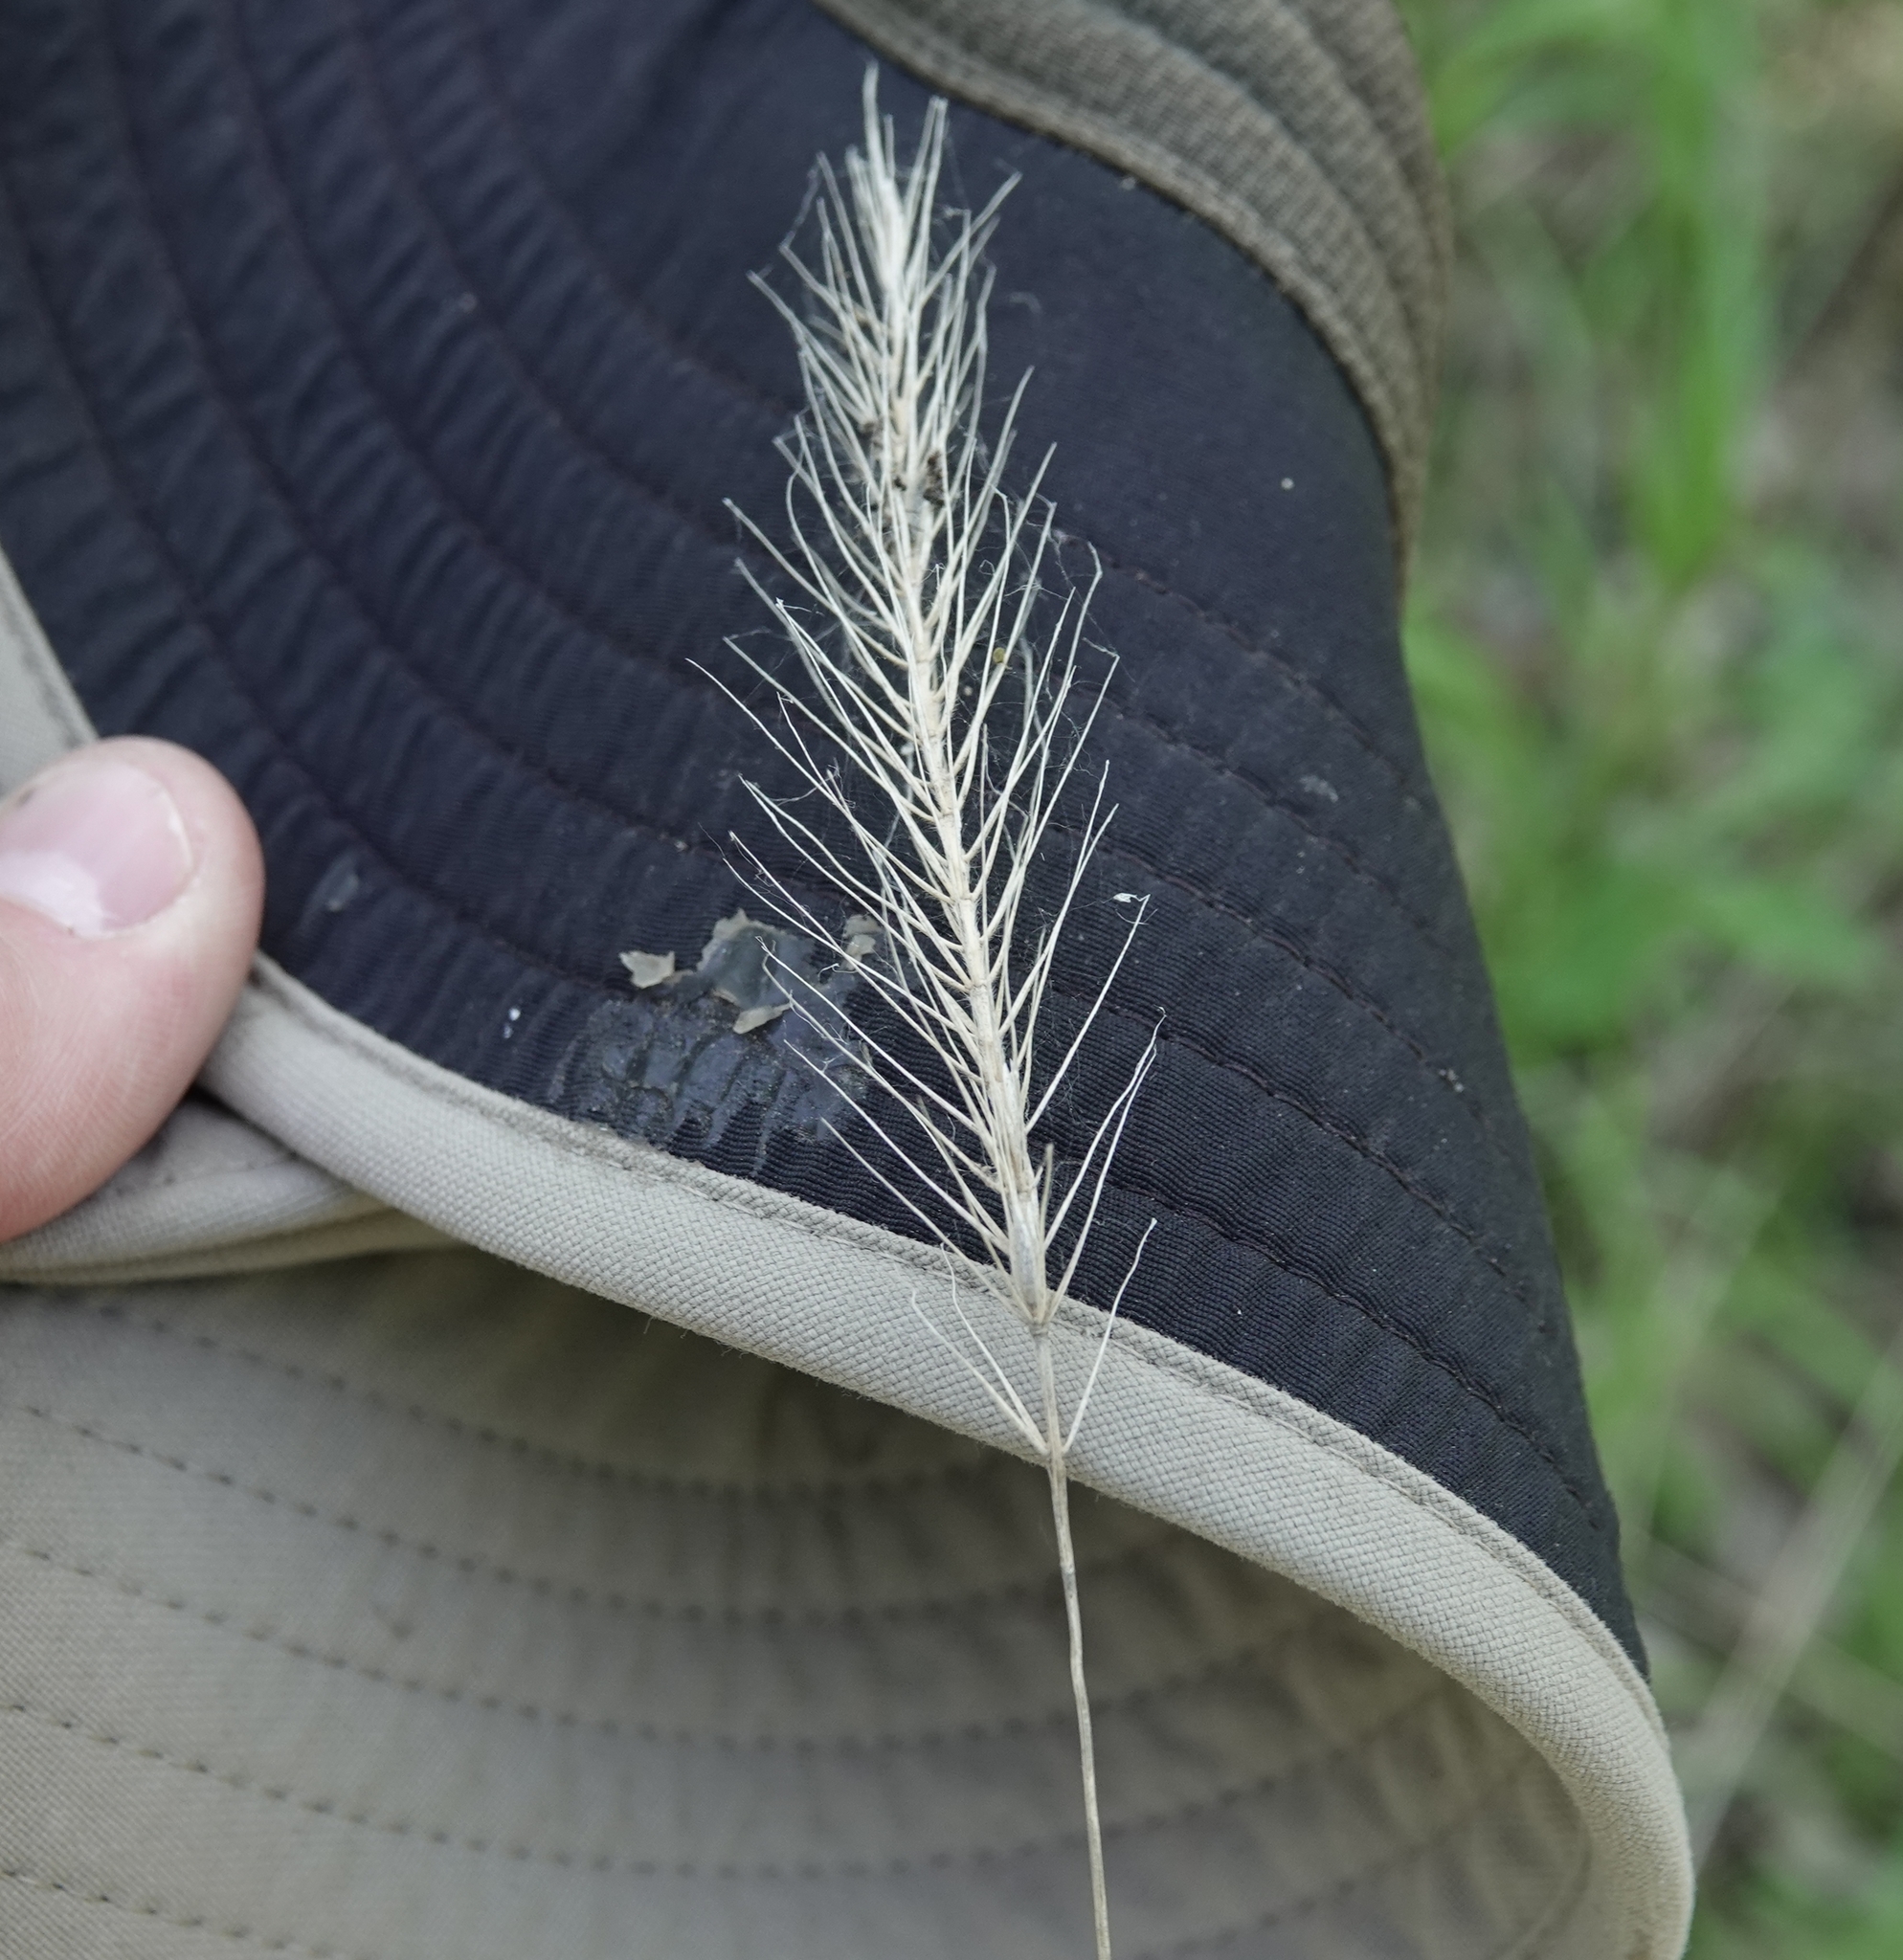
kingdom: Plantae
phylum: Tracheophyta
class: Liliopsida
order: Poales
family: Poaceae
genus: Elymus
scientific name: Elymus villosus
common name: Downy wild rye
